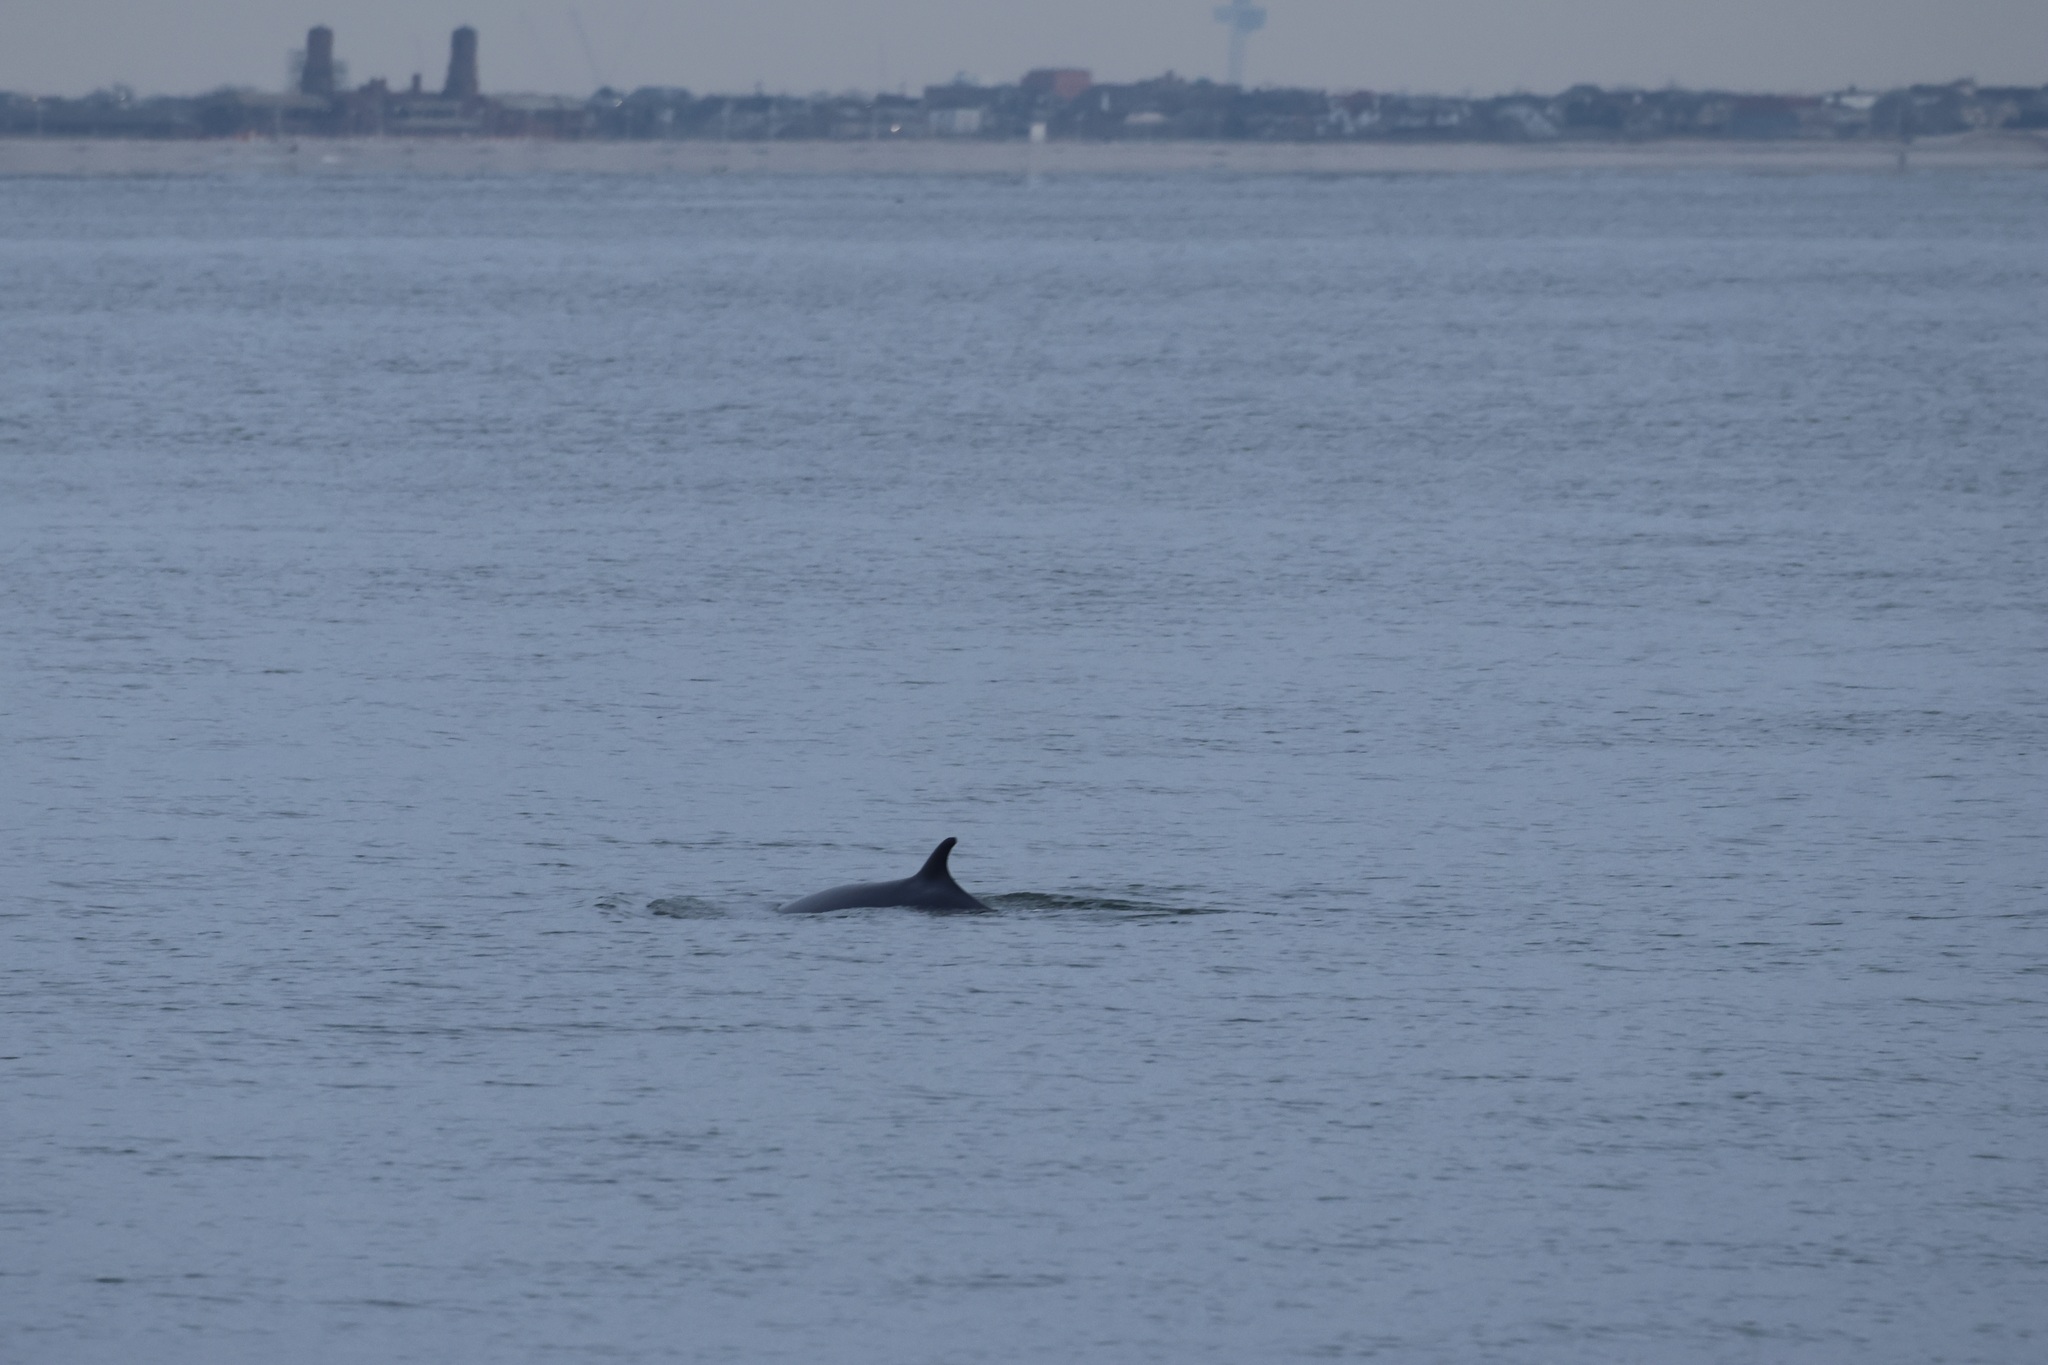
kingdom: Animalia
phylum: Chordata
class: Mammalia
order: Cetacea
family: Balaenopteridae
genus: Balaenoptera
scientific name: Balaenoptera acutorostrata
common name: Common minke whale
